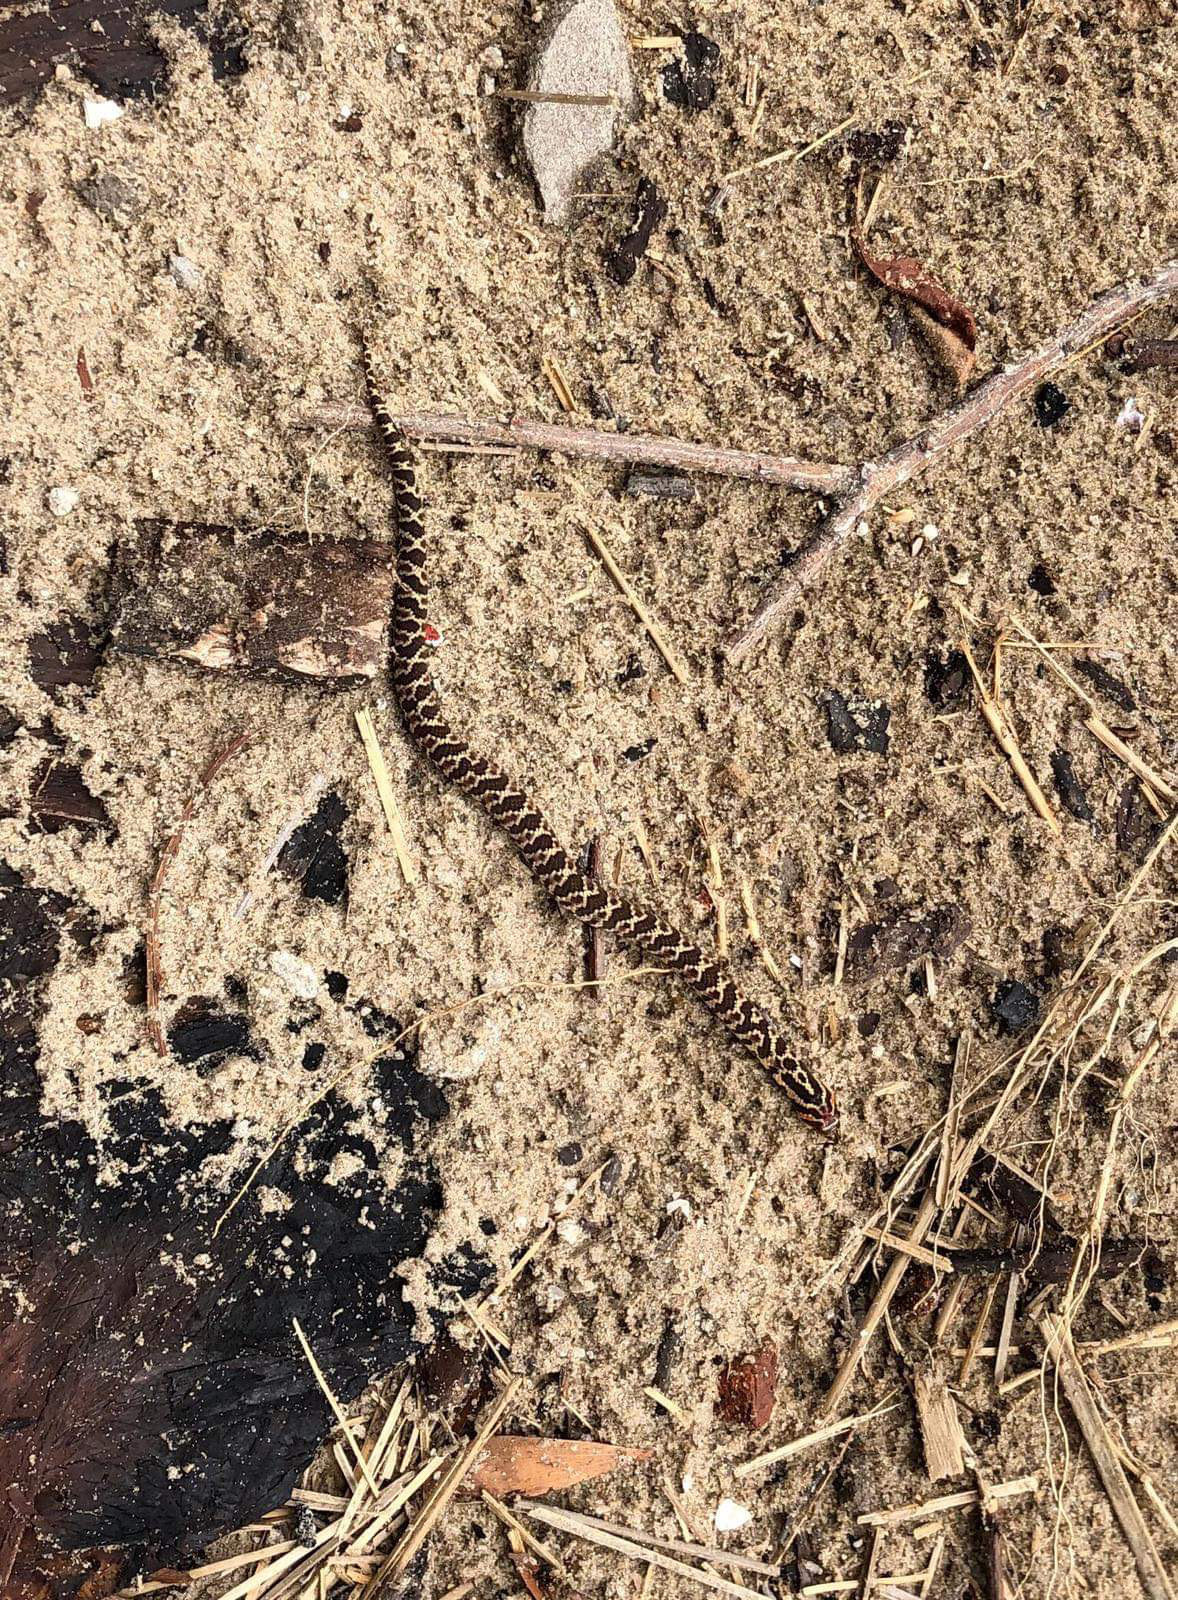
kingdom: Animalia
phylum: Chordata
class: Squamata
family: Colubridae
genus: Xenodon
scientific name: Xenodon dorbignyi
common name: South american hognose snake
